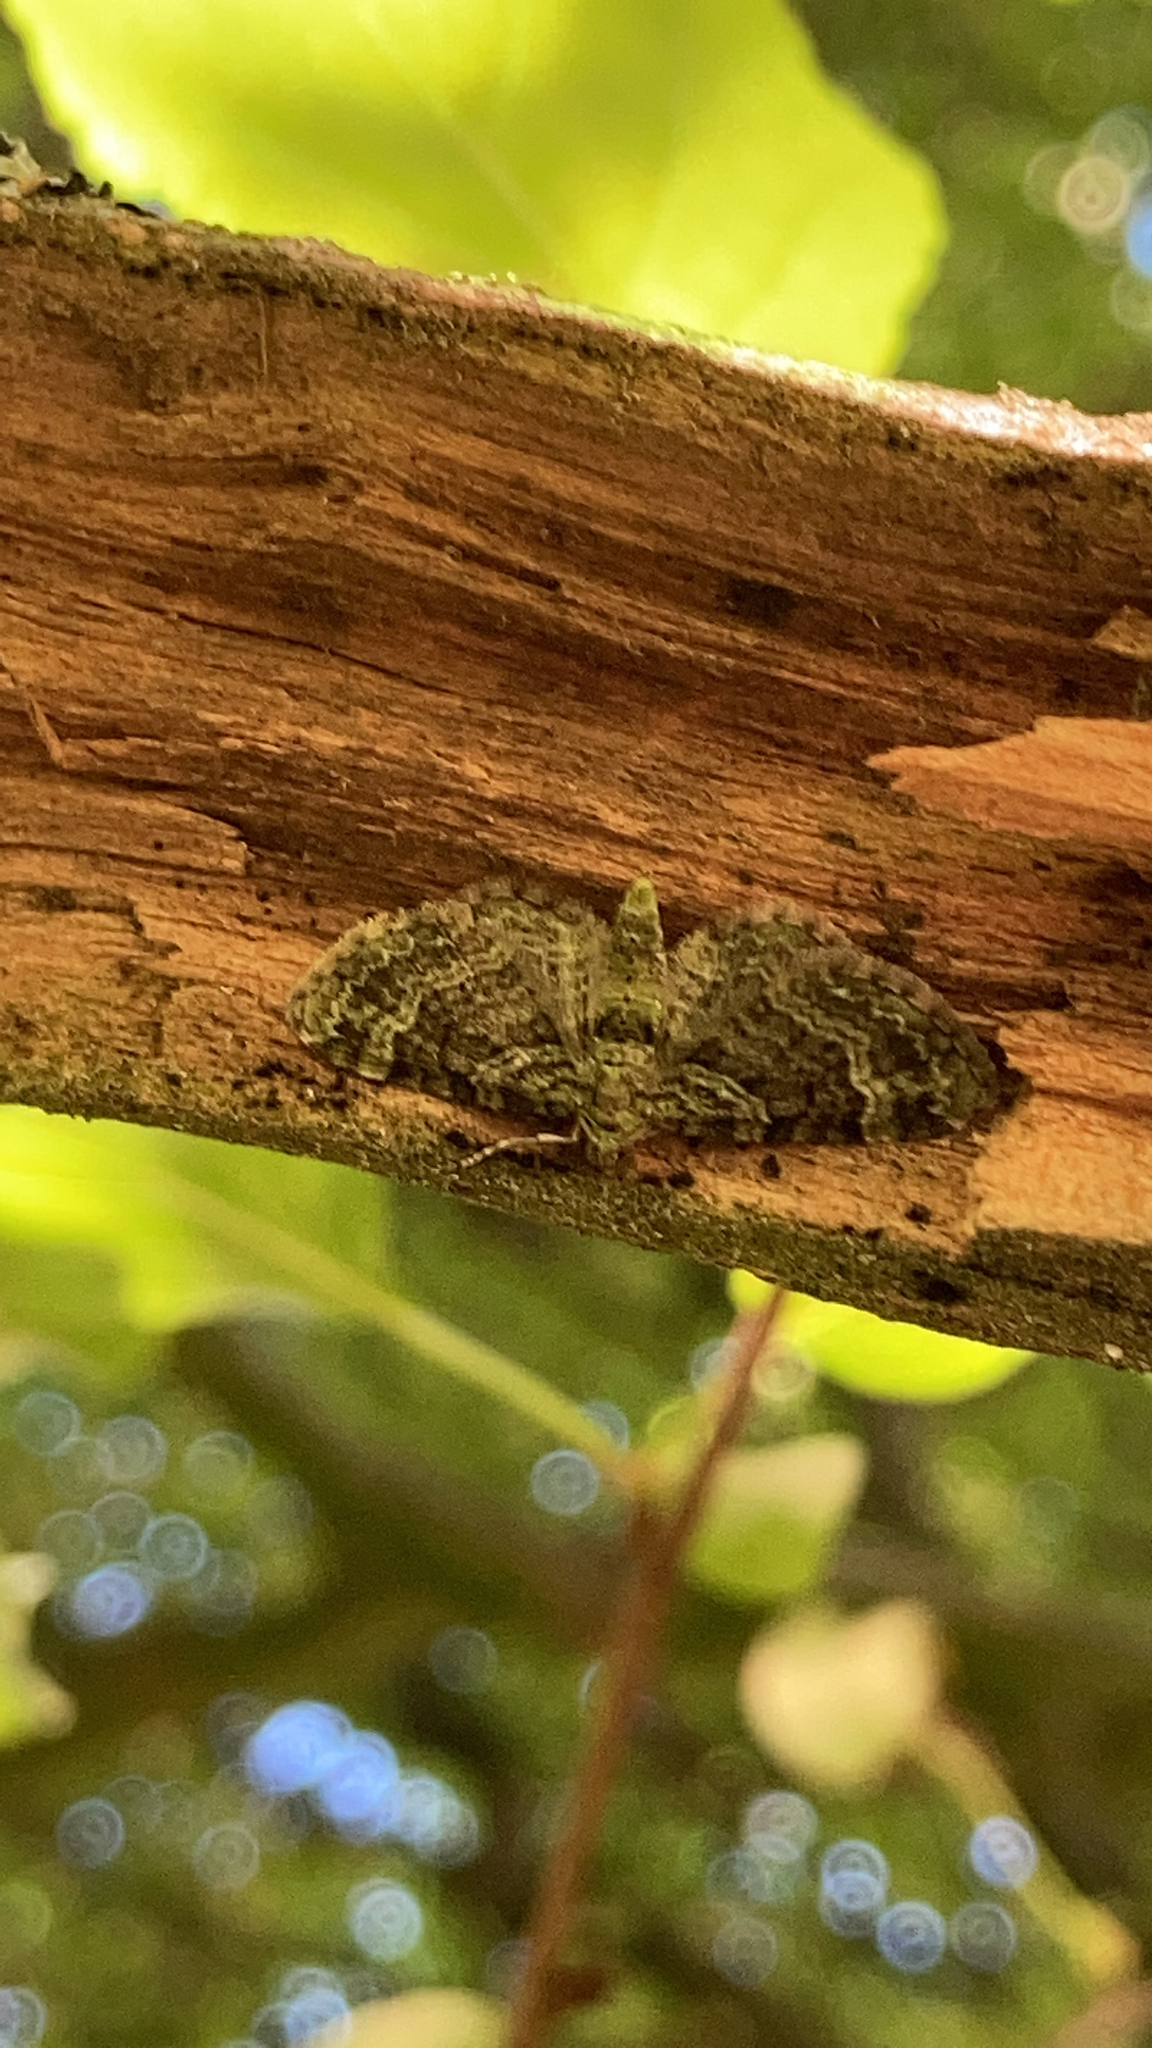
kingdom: Animalia
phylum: Arthropoda
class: Insecta
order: Lepidoptera
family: Geometridae
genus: Pasiphila
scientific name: Pasiphila rectangulata
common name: Green pug
